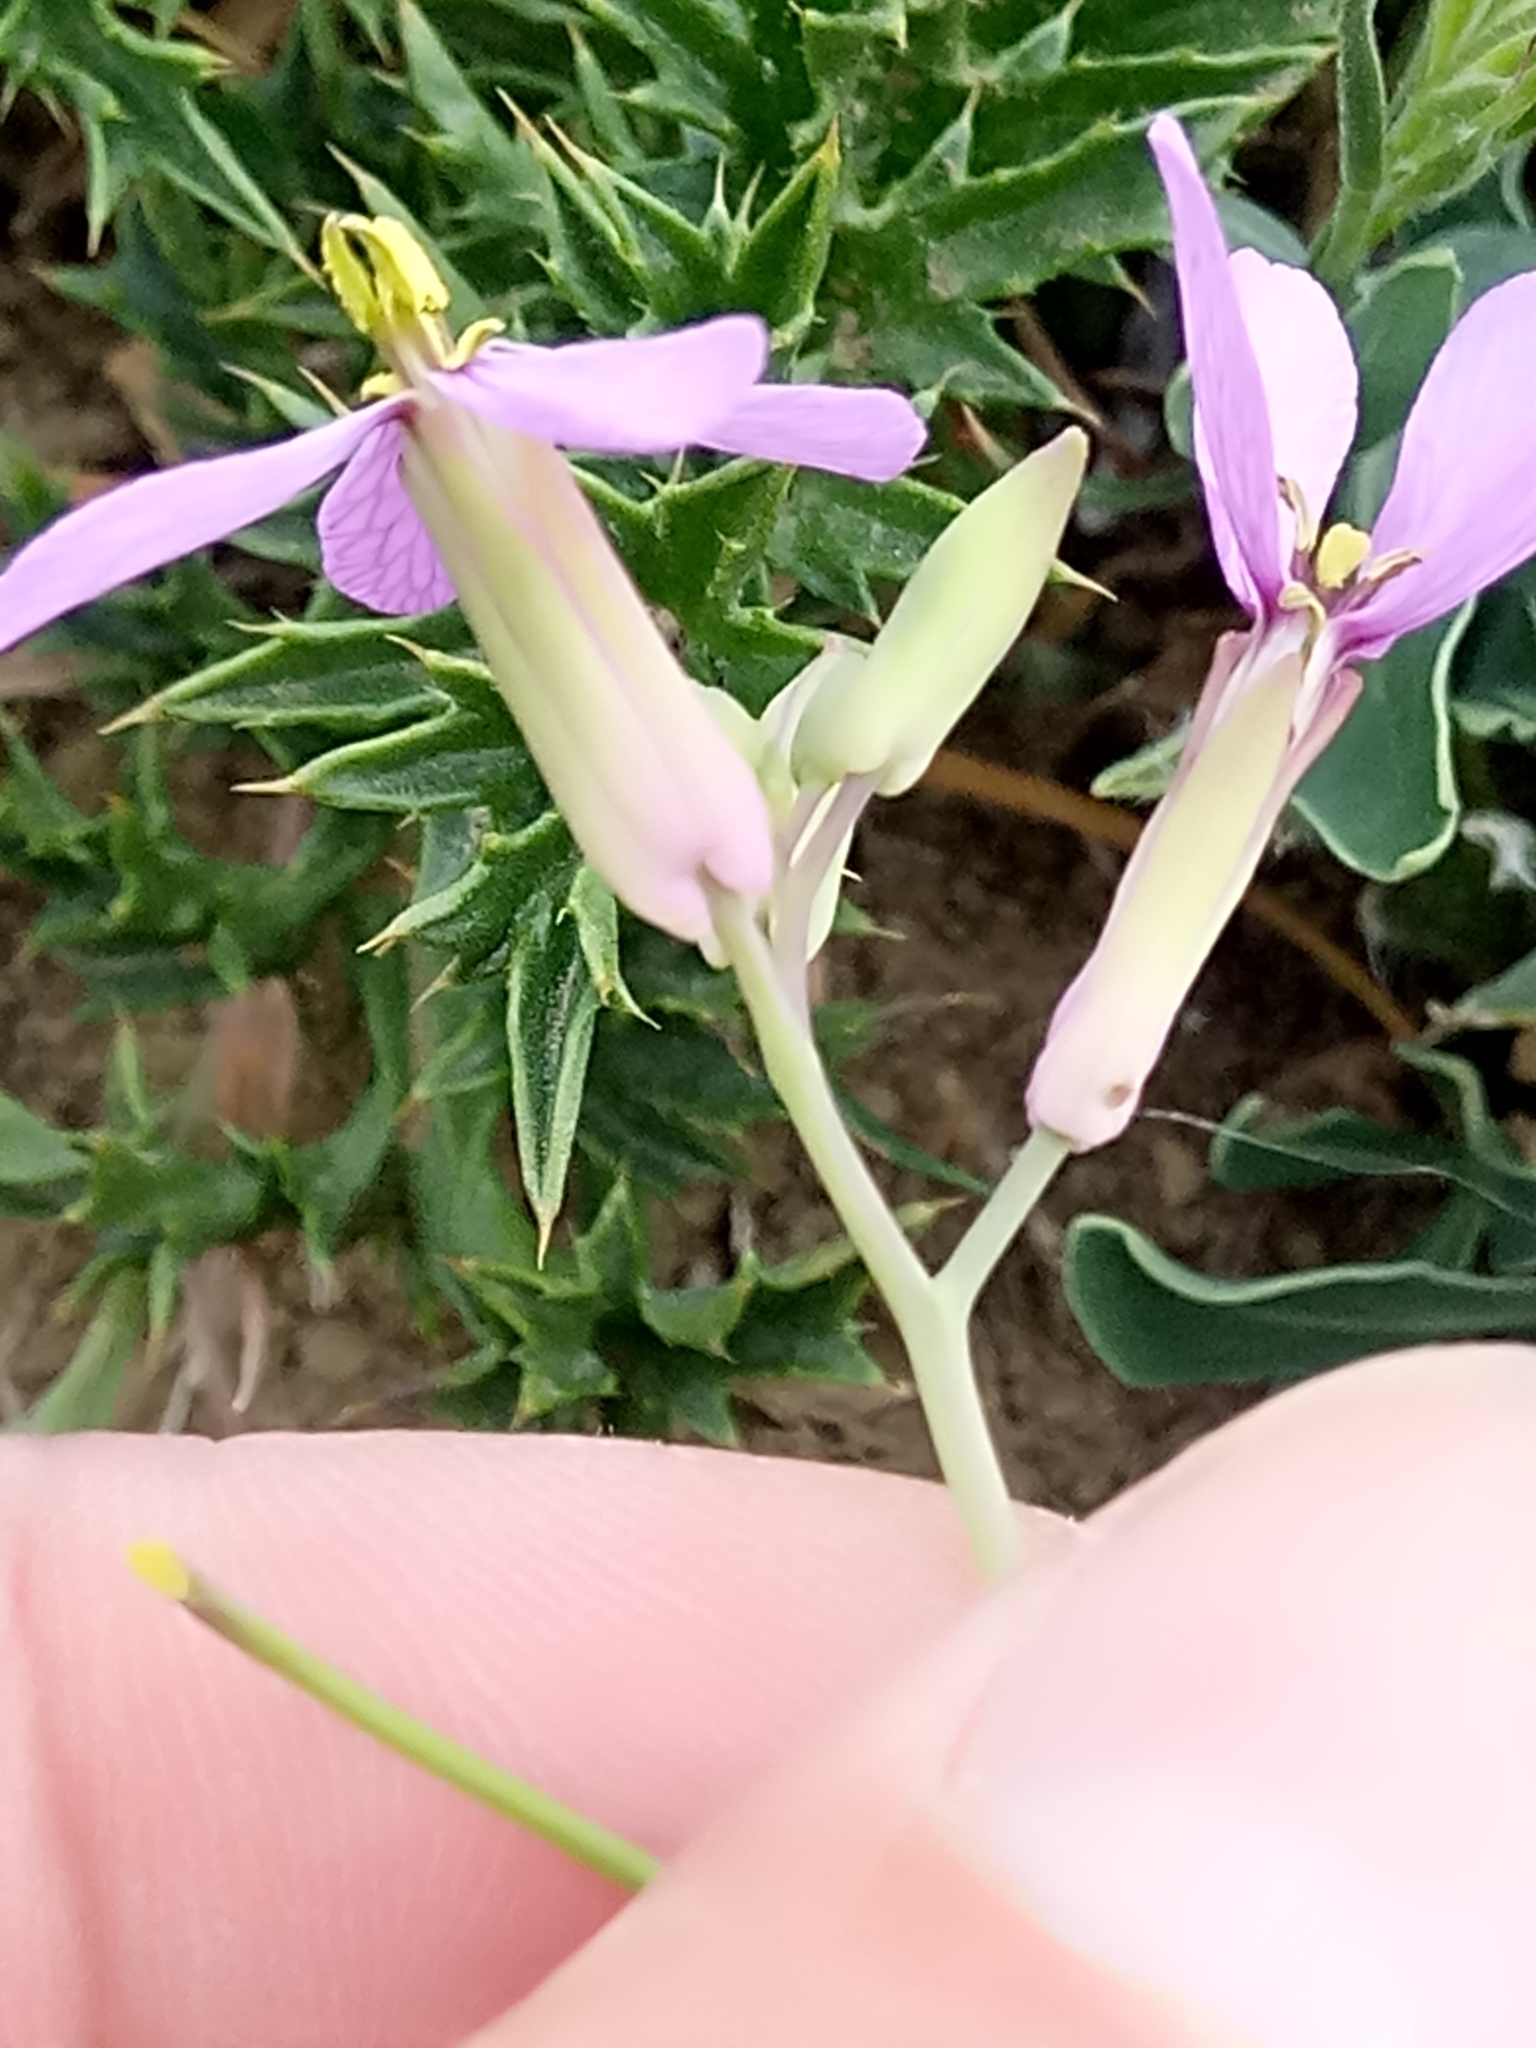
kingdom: Plantae
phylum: Tracheophyta
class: Magnoliopsida
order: Brassicales
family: Brassicaceae
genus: Moricandia
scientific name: Moricandia suffruticosa
